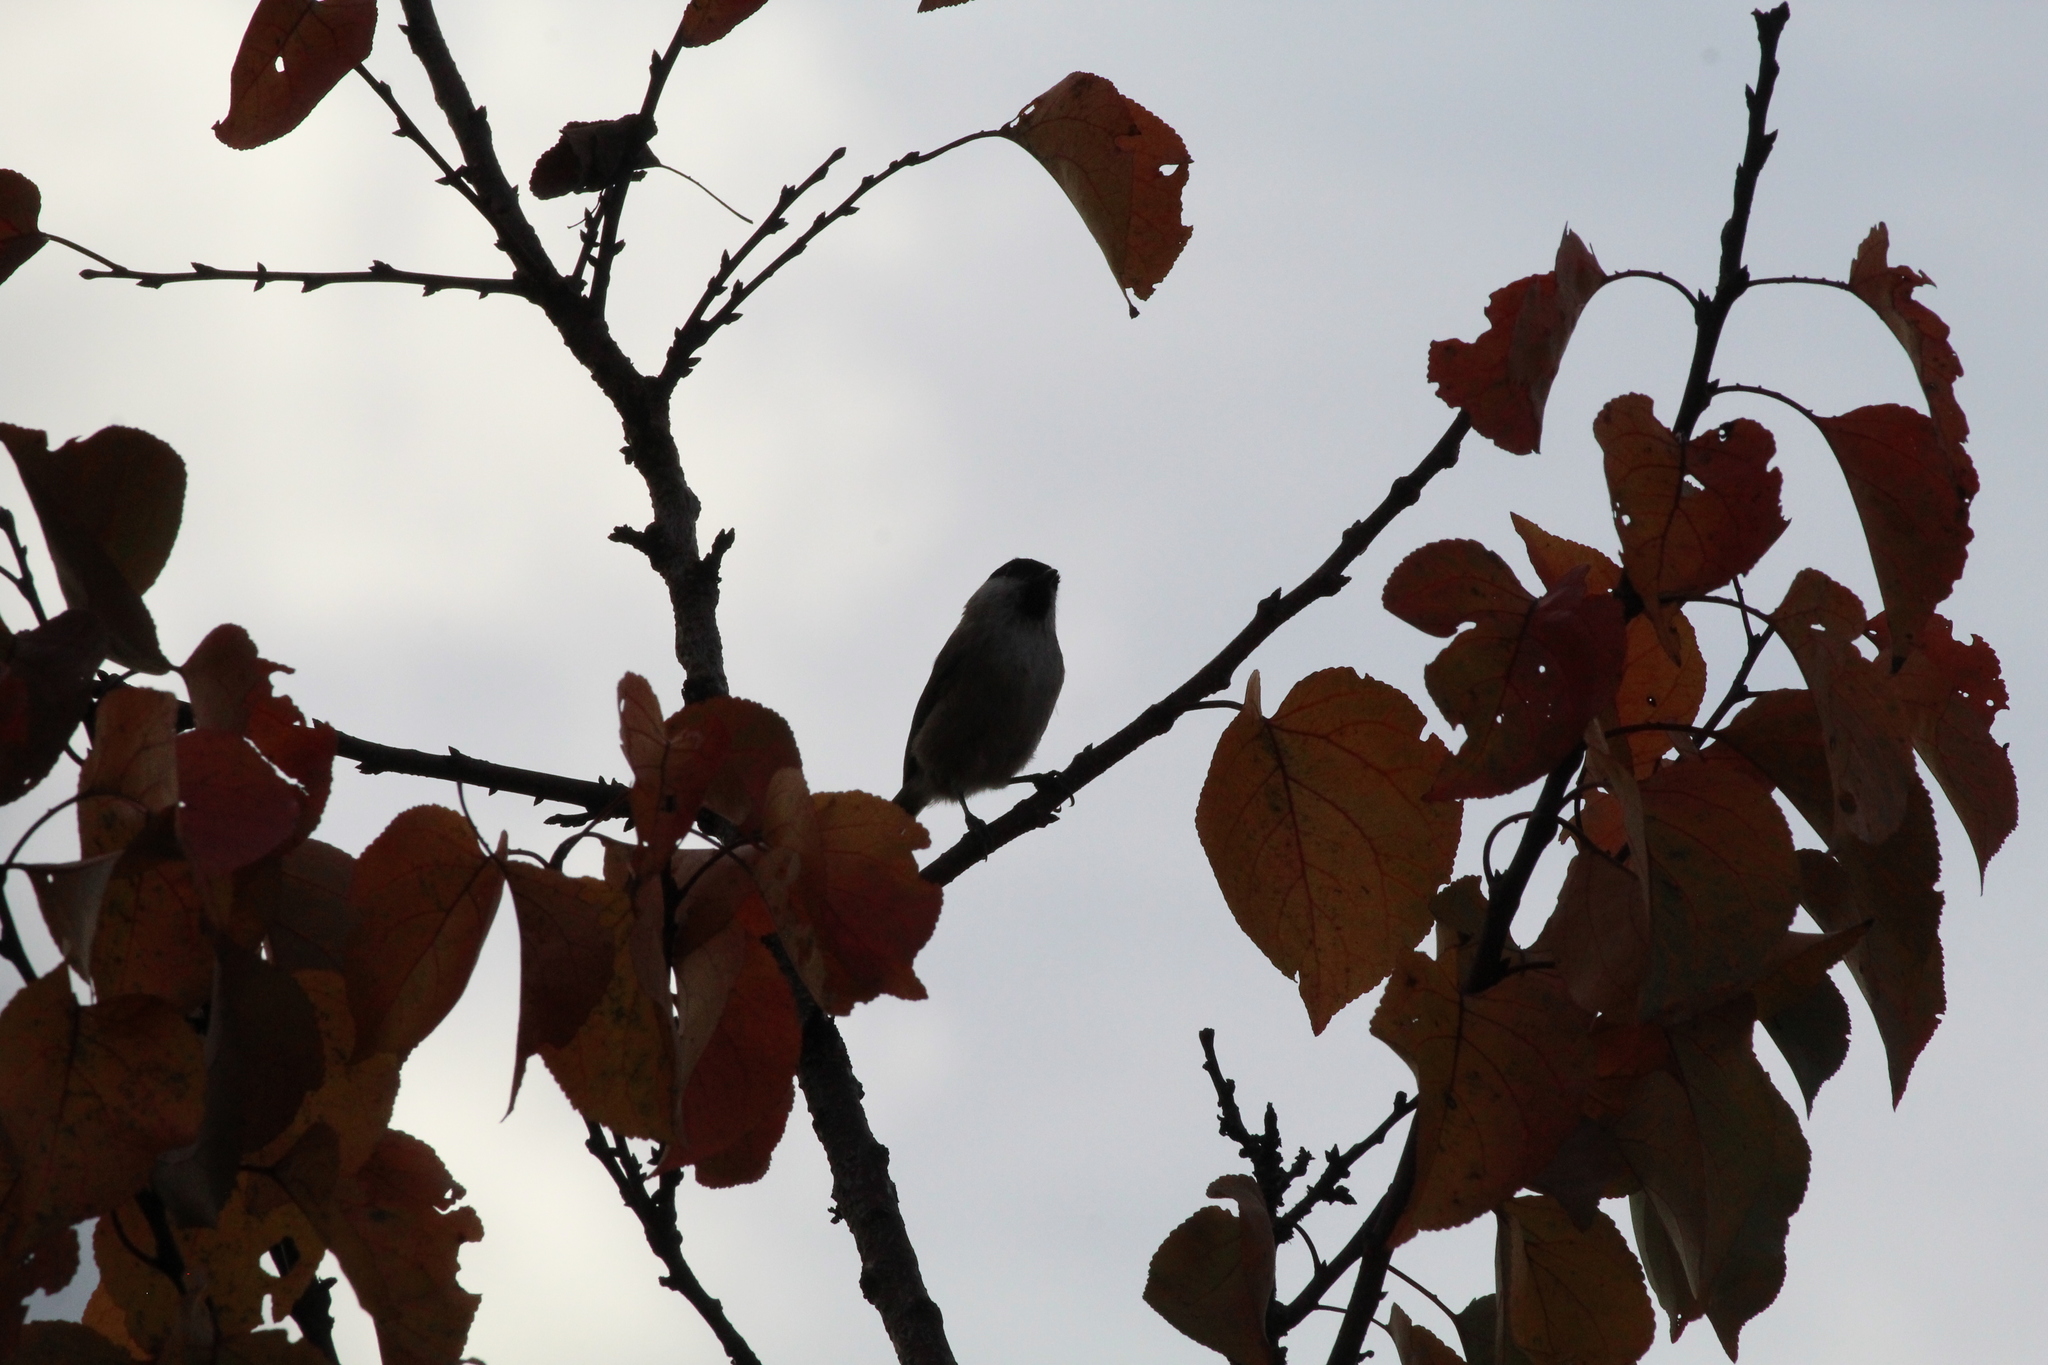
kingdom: Animalia
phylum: Chordata
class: Aves
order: Passeriformes
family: Paridae
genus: Poecile
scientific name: Poecile palustris
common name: Marsh tit
